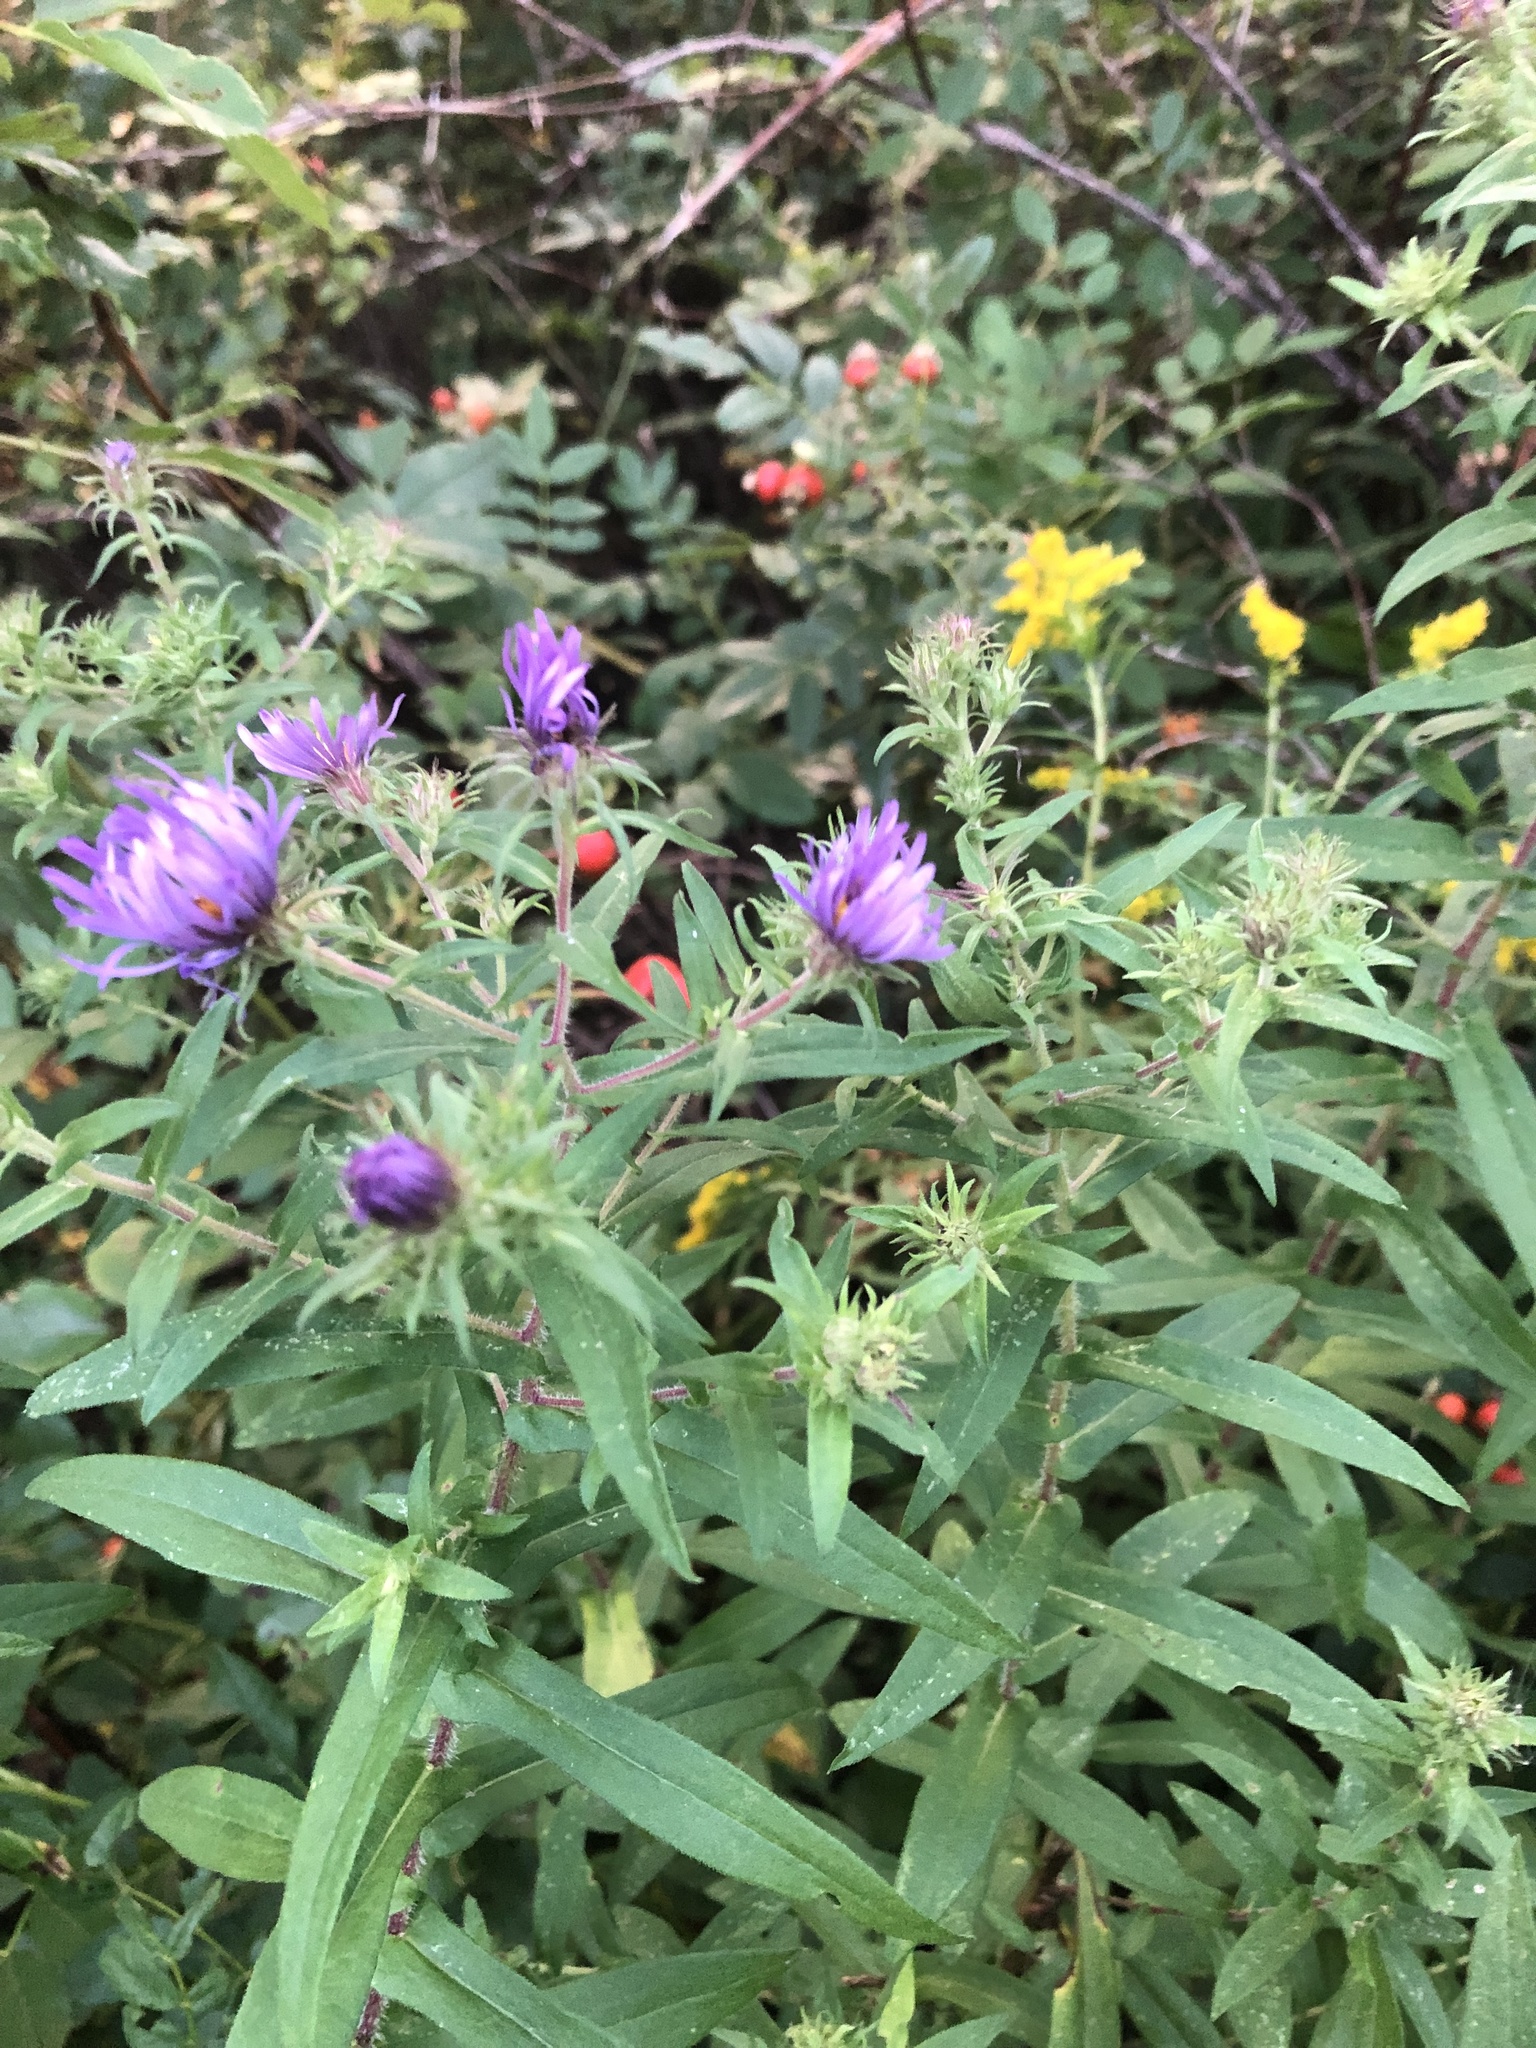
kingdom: Plantae
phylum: Tracheophyta
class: Magnoliopsida
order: Asterales
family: Asteraceae
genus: Symphyotrichum
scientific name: Symphyotrichum novae-angliae
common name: Michaelmas daisy
